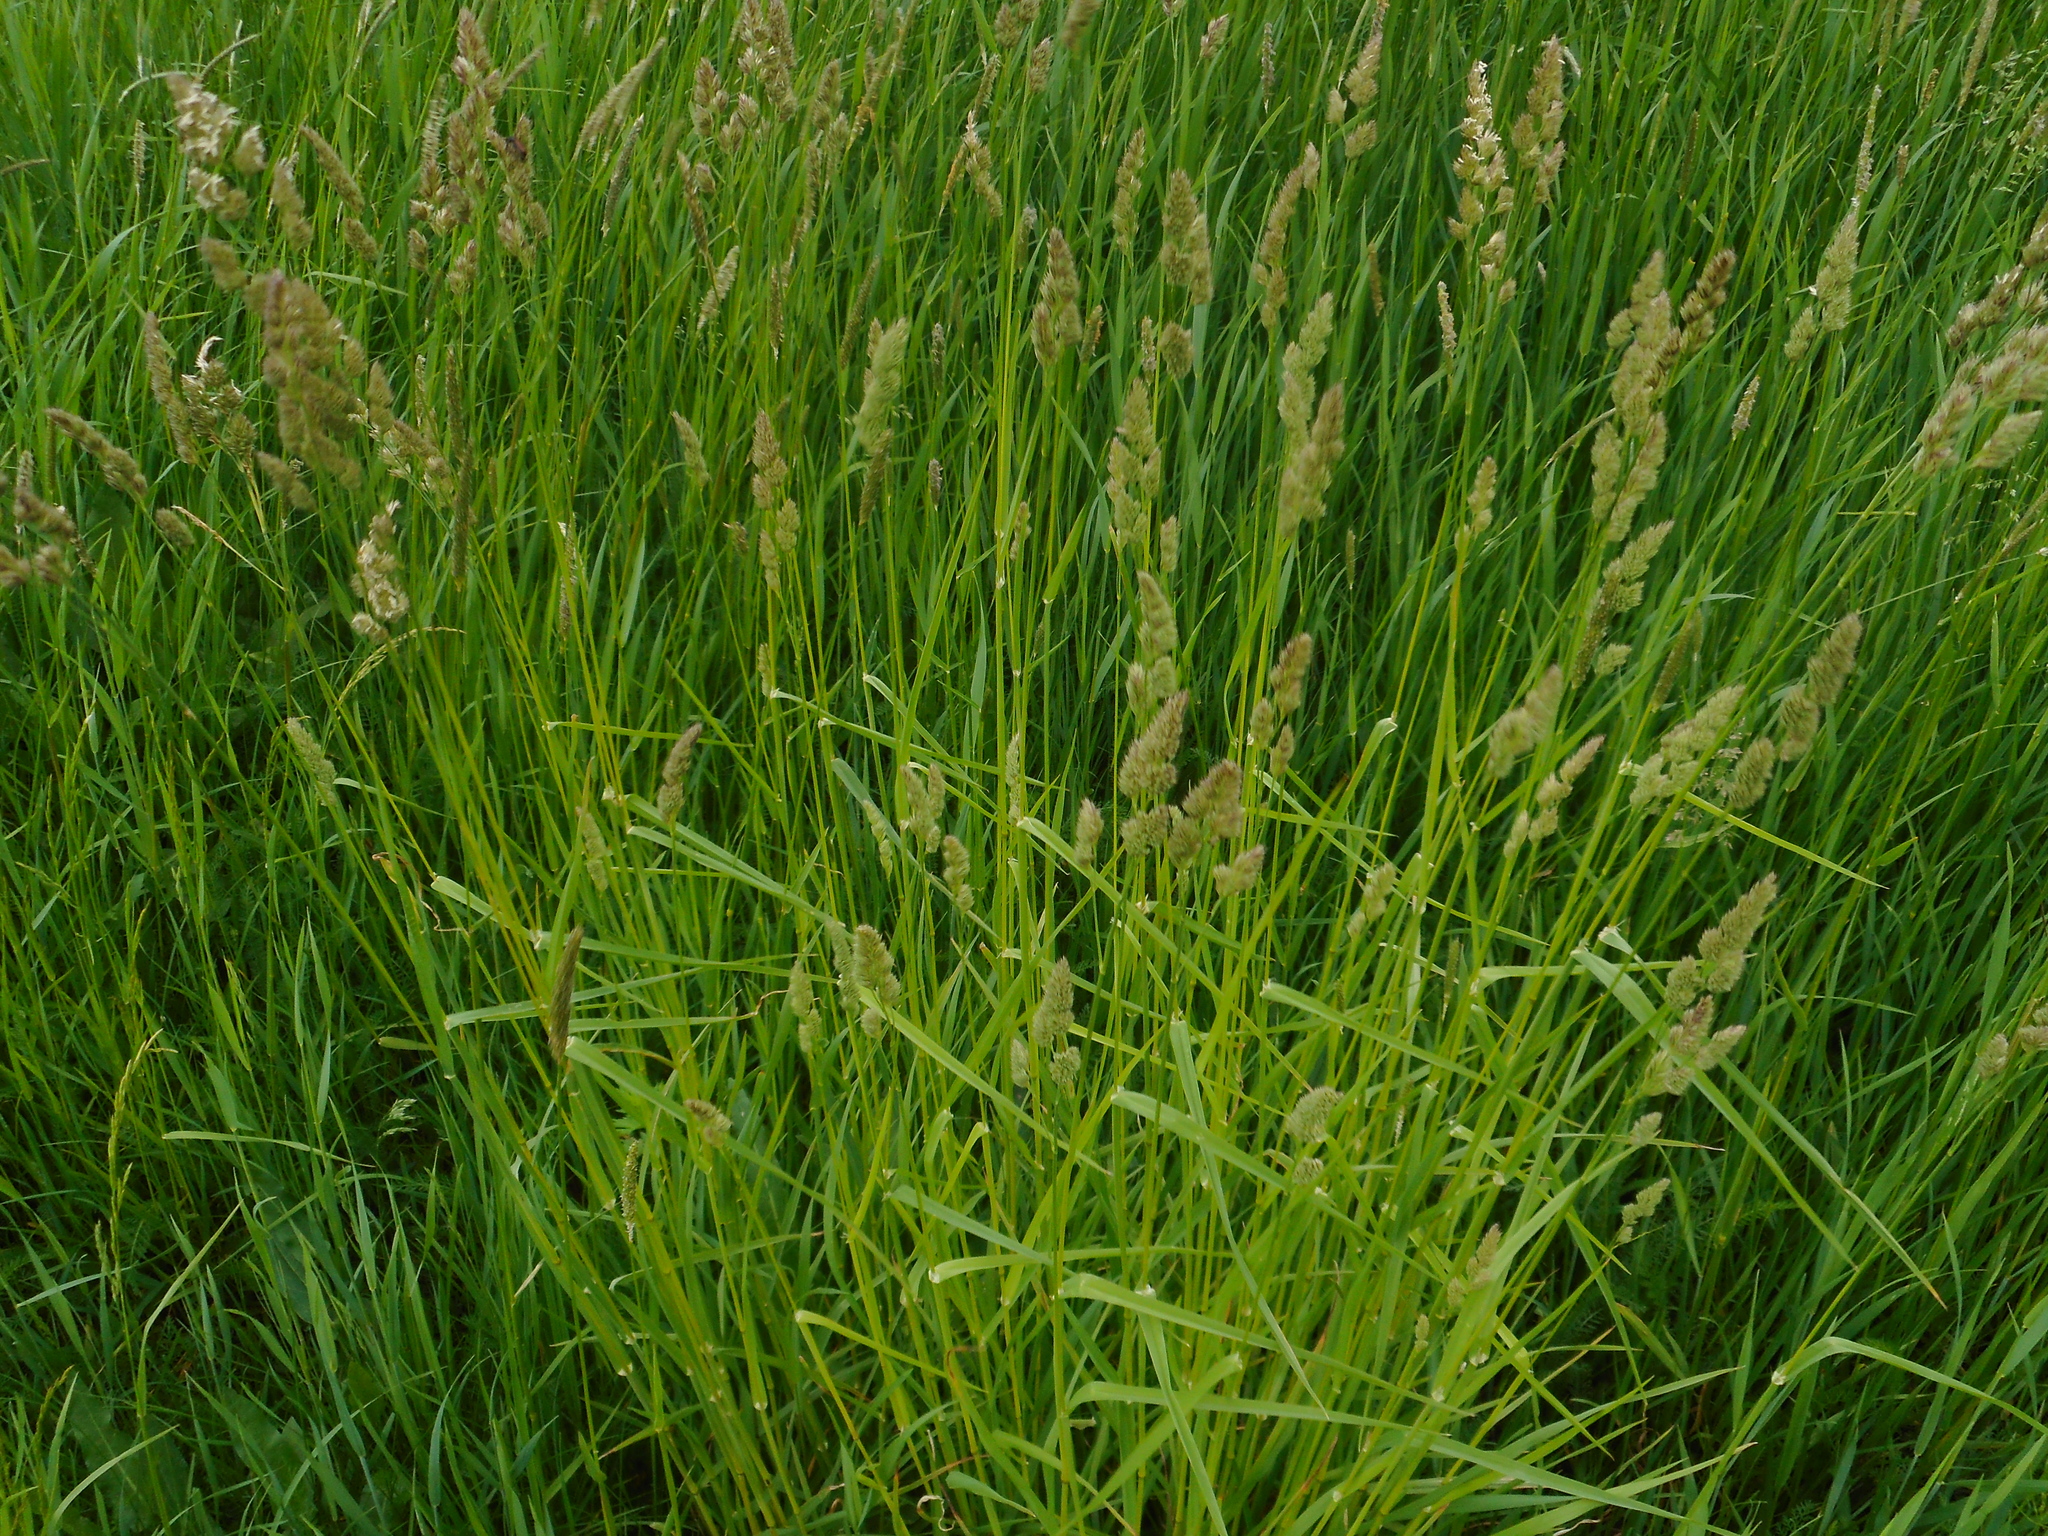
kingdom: Plantae
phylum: Tracheophyta
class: Liliopsida
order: Poales
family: Poaceae
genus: Dactylis
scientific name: Dactylis glomerata
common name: Orchardgrass
